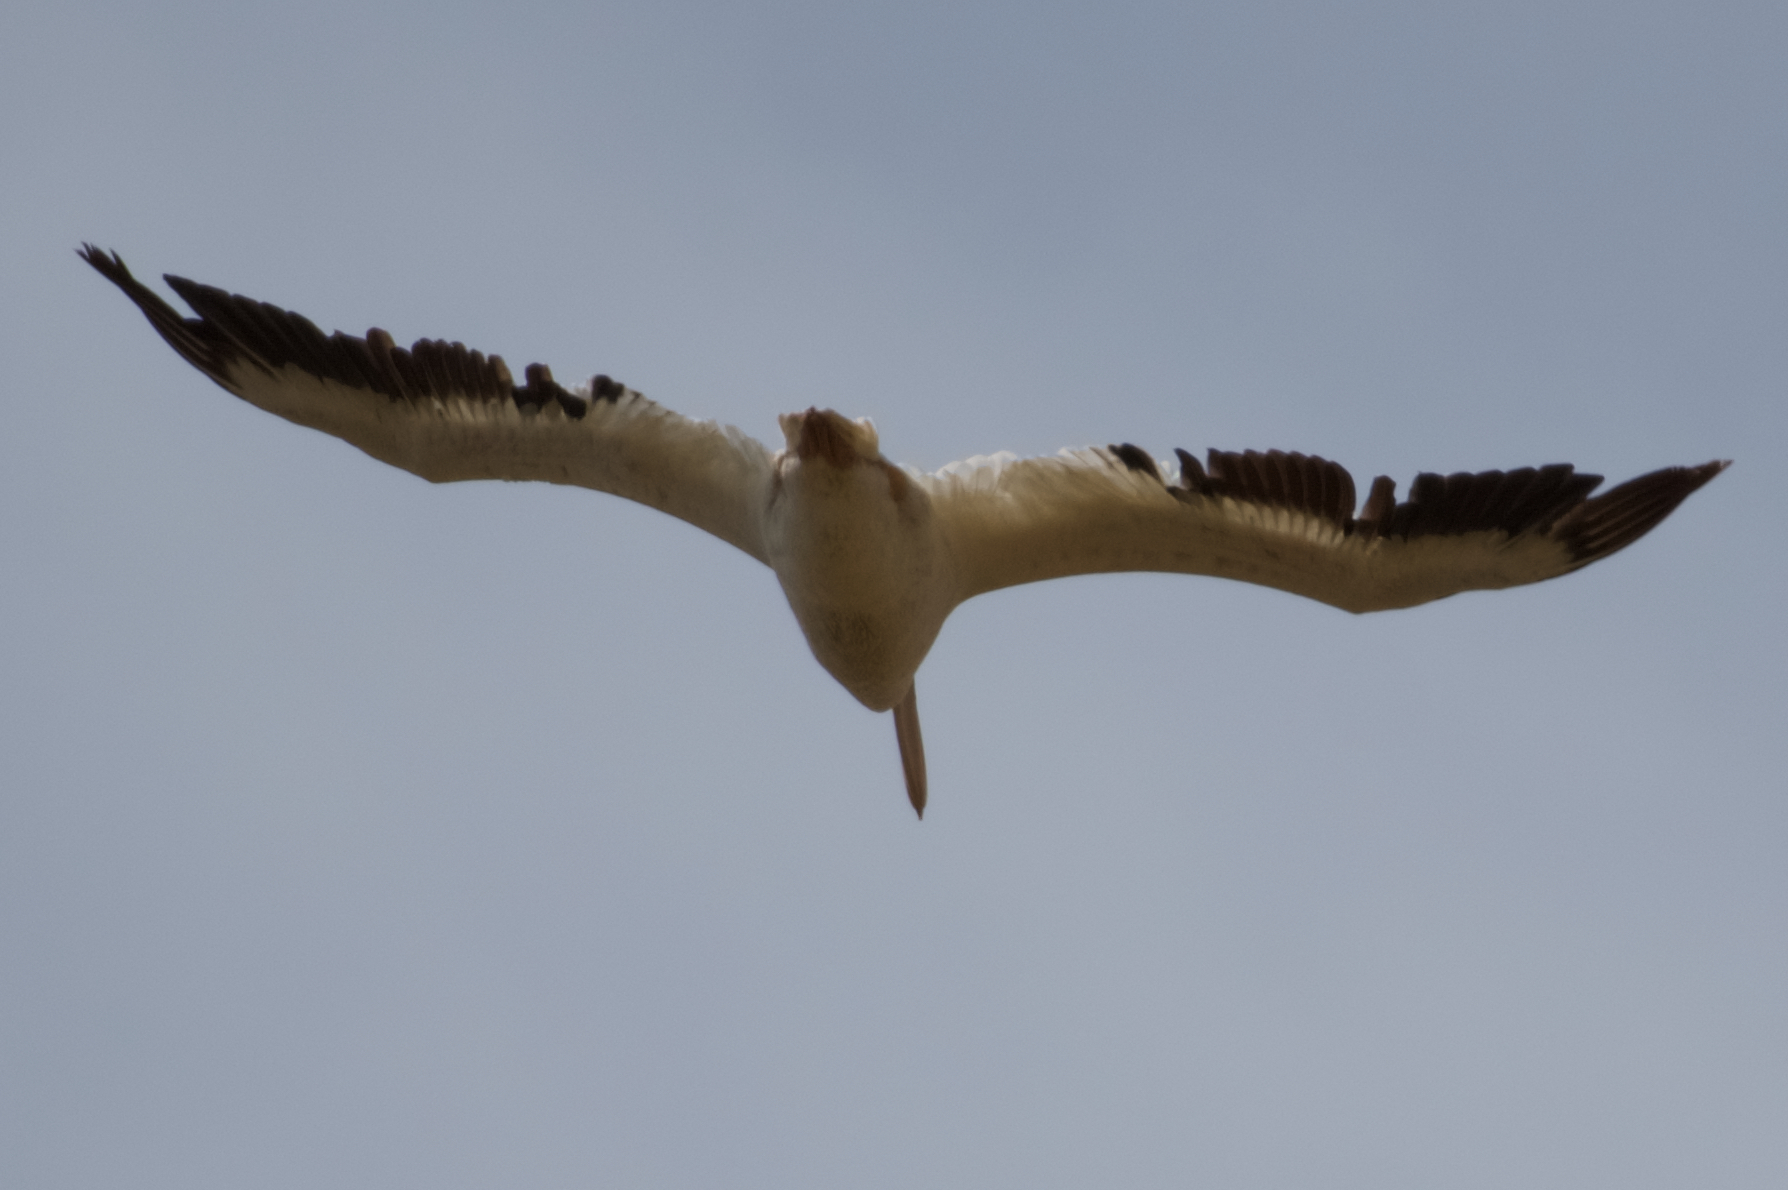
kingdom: Animalia
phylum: Chordata
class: Aves
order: Pelecaniformes
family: Pelecanidae
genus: Pelecanus
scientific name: Pelecanus erythrorhynchos
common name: American white pelican
